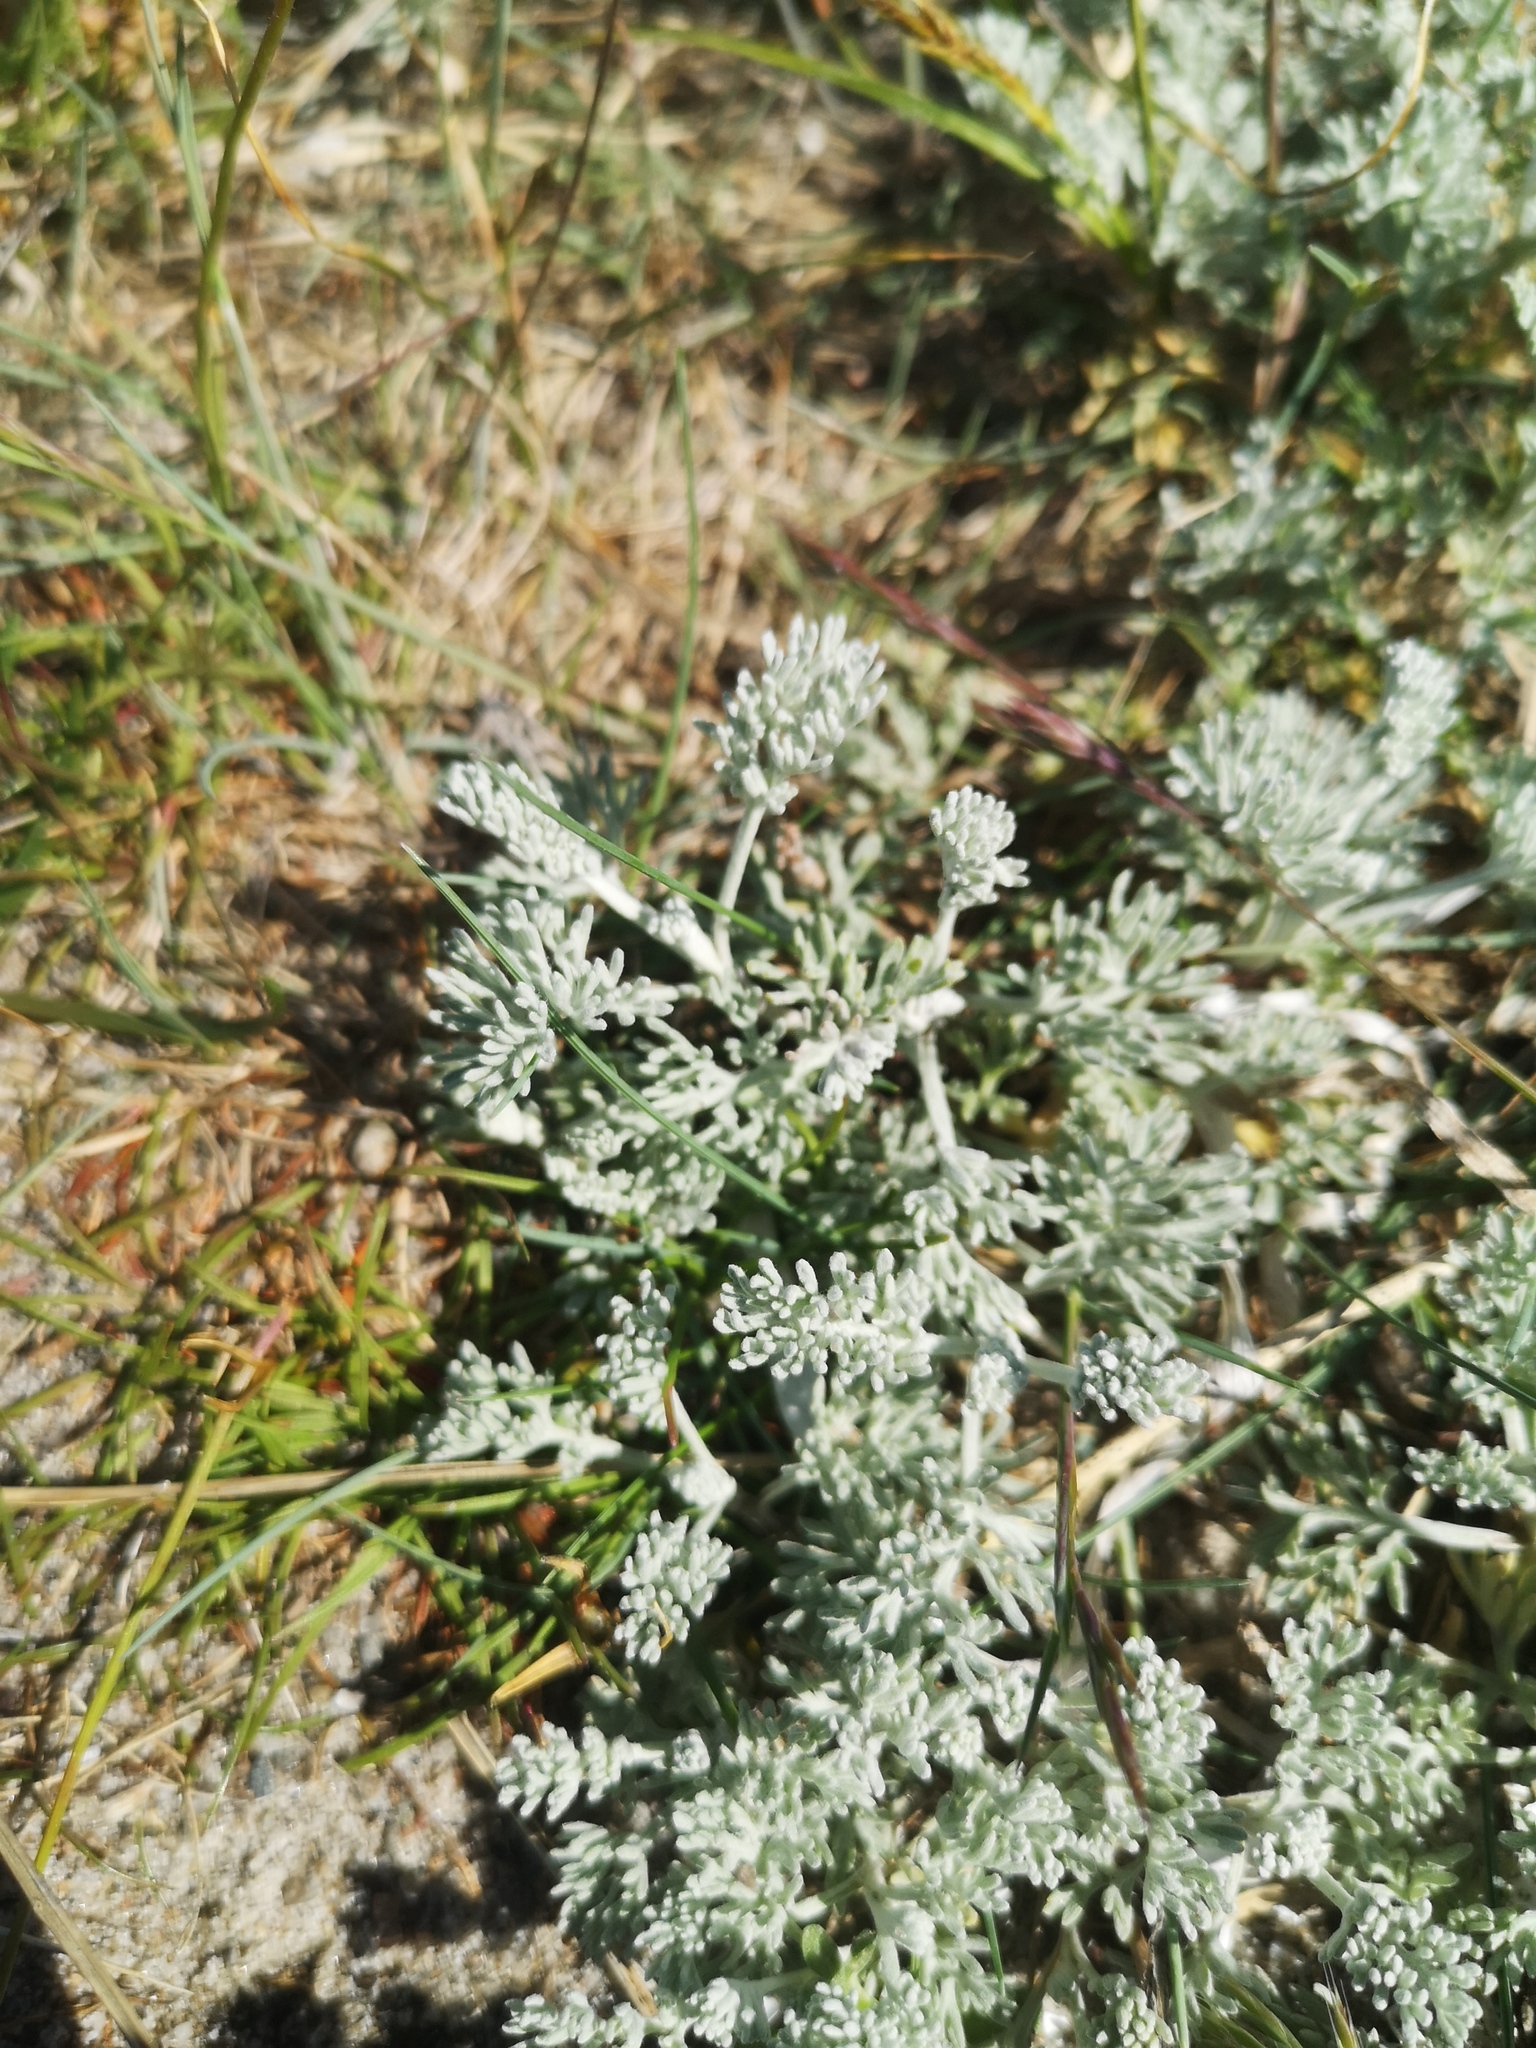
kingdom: Plantae
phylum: Tracheophyta
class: Magnoliopsida
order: Asterales
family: Asteraceae
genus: Artemisia
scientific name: Artemisia maritima
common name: Wormseed
